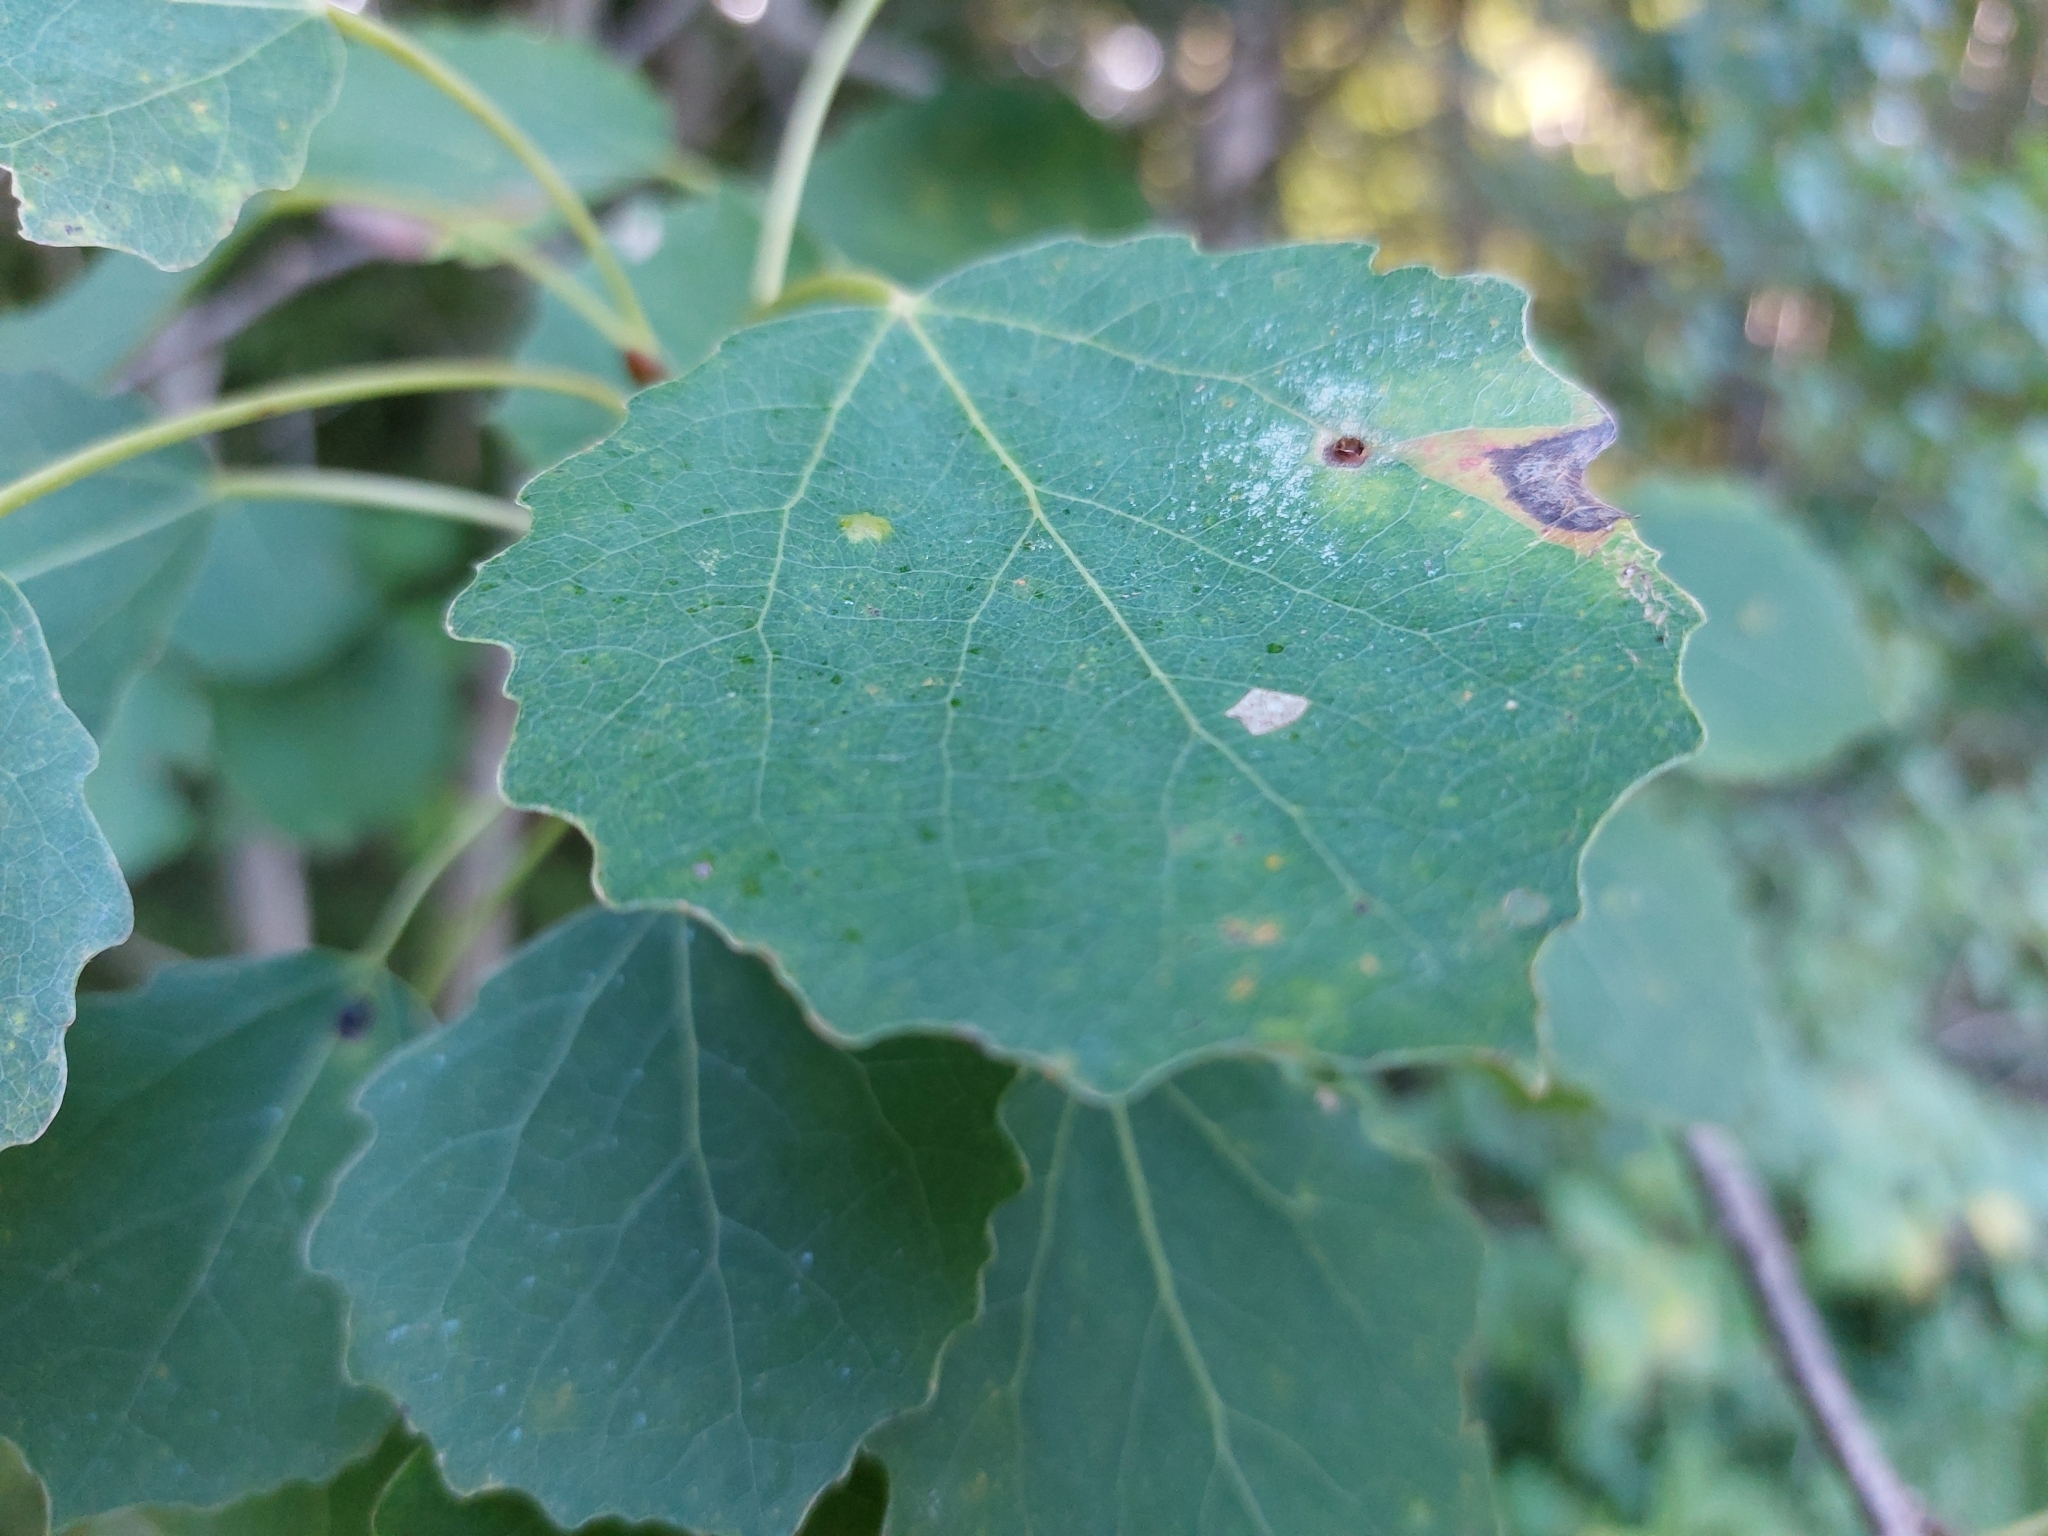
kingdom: Animalia
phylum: Arthropoda
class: Insecta
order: Diptera
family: Cecidomyiidae
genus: Harmandiola
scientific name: Harmandiola cavernosa
